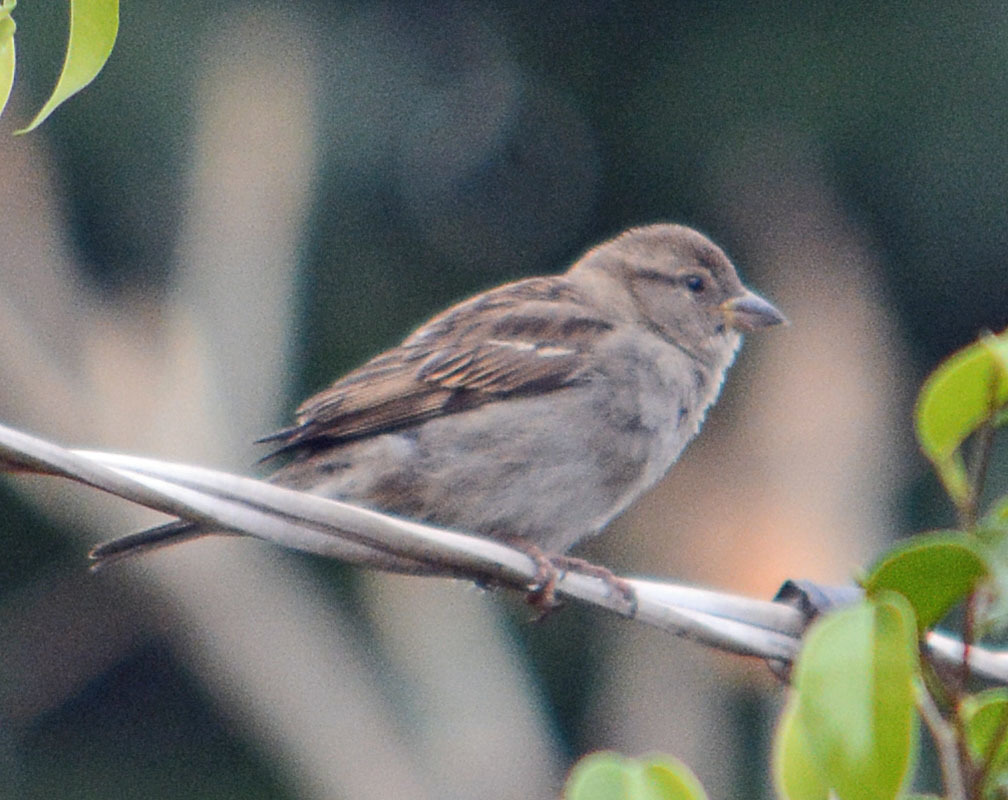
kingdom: Animalia
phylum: Chordata
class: Aves
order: Passeriformes
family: Passeridae
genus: Passer
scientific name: Passer domesticus
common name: House sparrow
